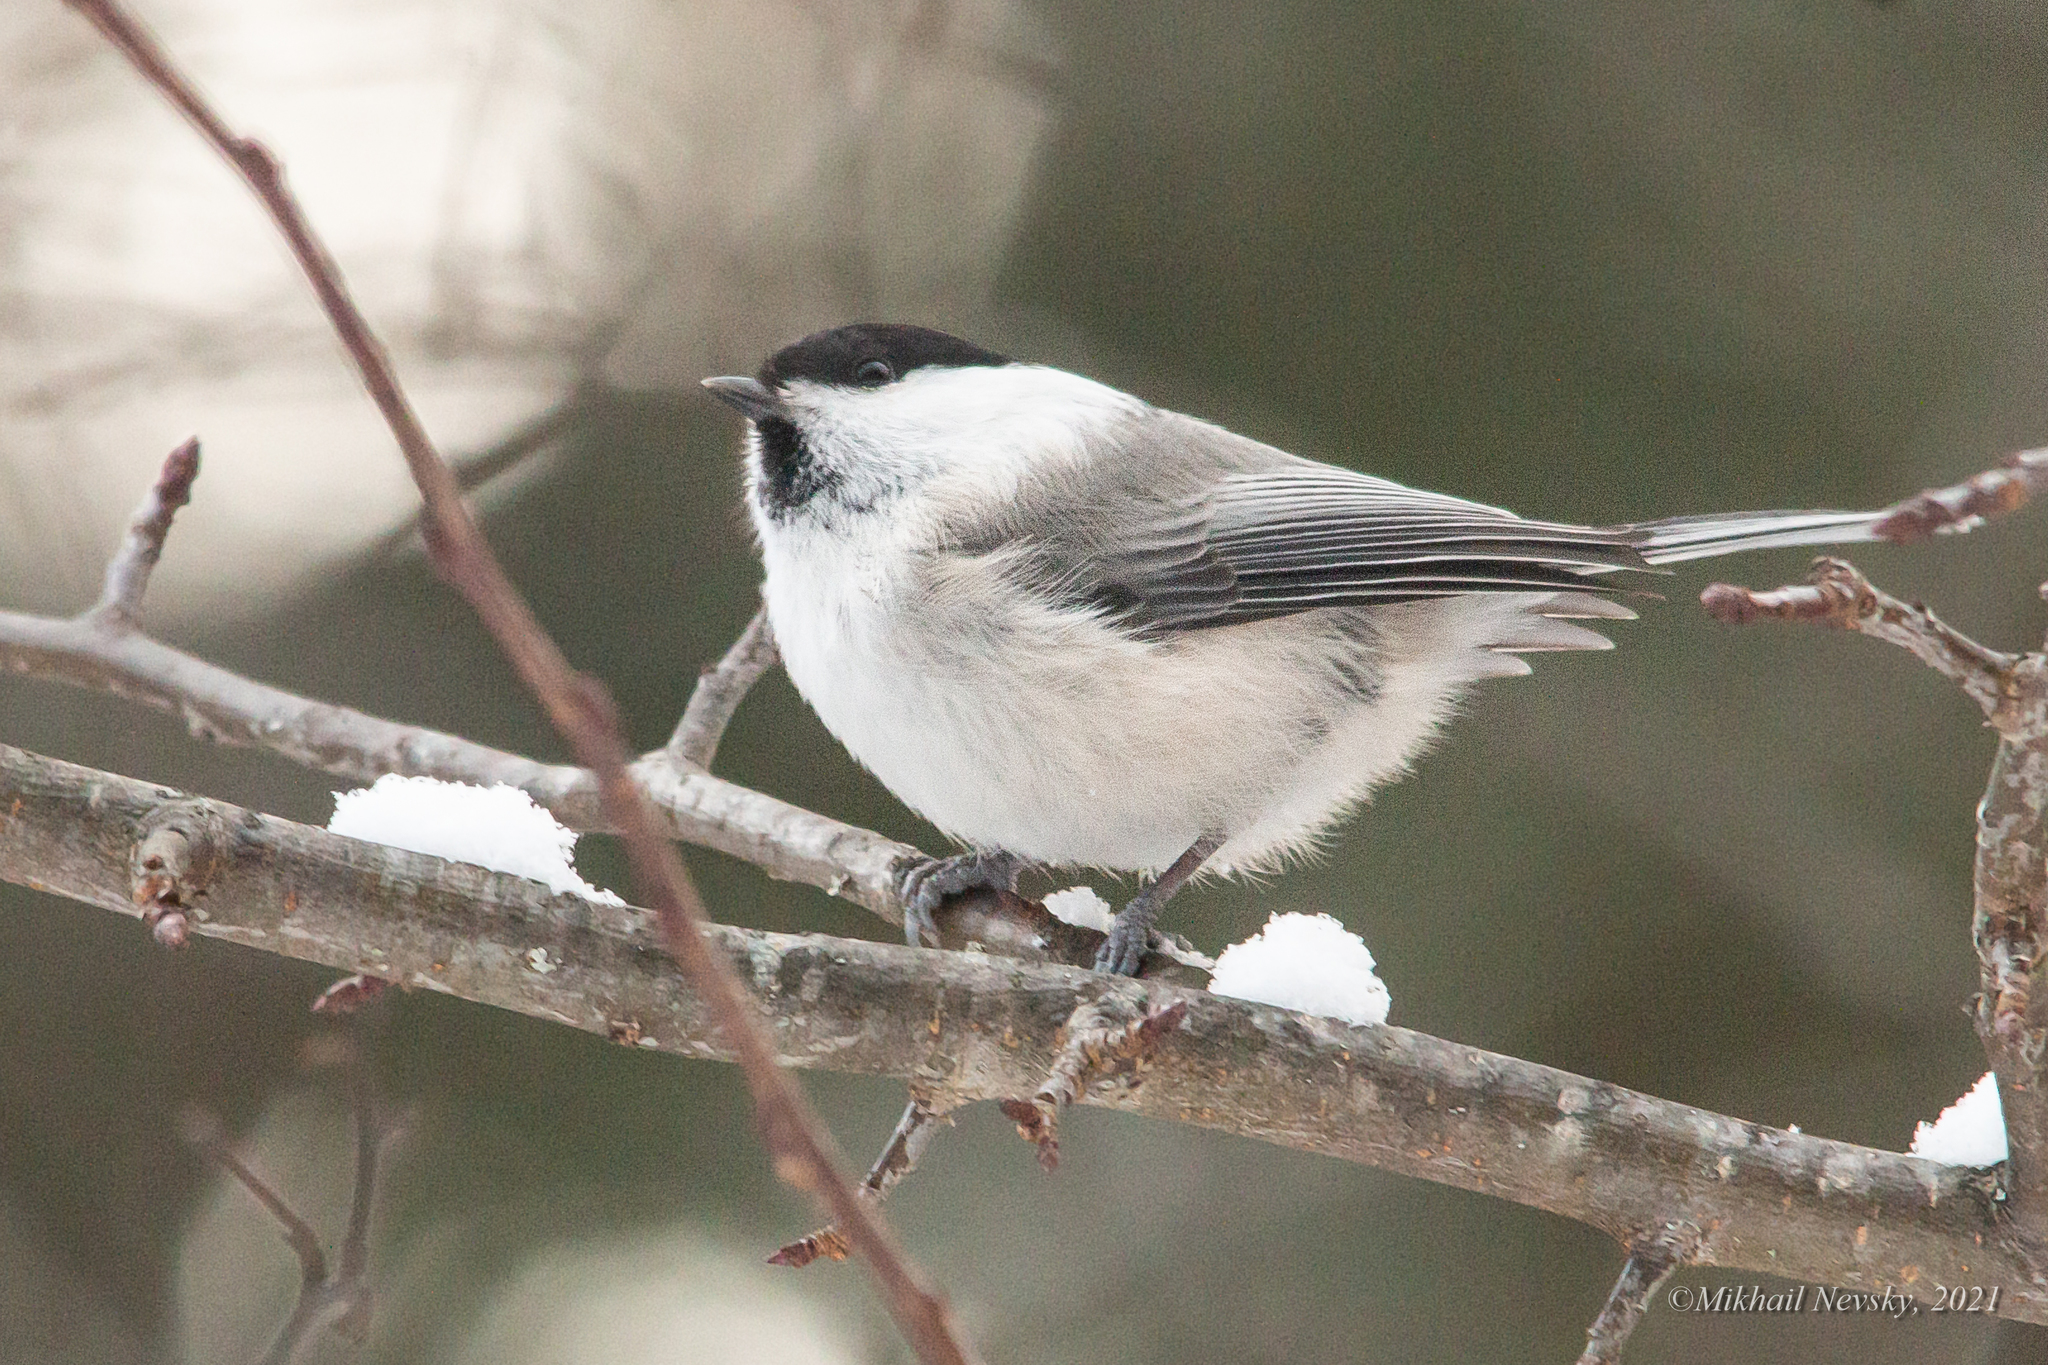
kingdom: Animalia
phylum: Chordata
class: Aves
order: Passeriformes
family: Paridae
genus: Poecile
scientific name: Poecile montanus
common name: Willow tit
